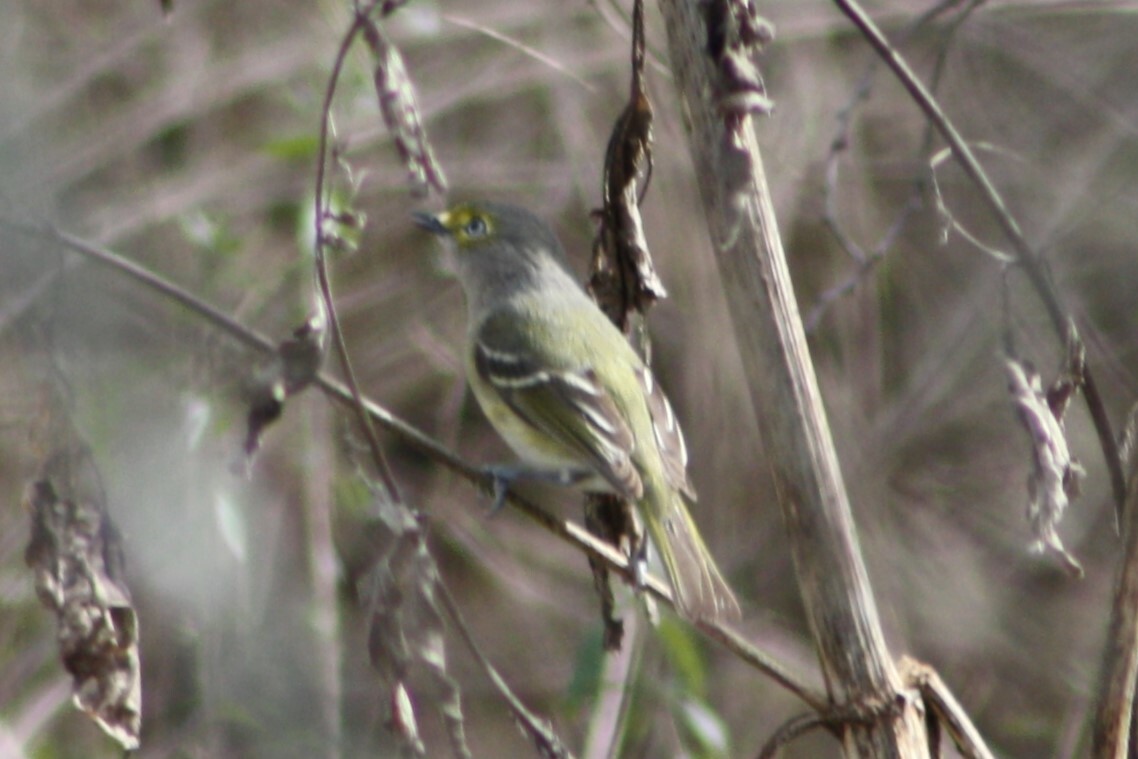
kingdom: Animalia
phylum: Chordata
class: Aves
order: Passeriformes
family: Vireonidae
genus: Vireo
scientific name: Vireo griseus
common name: White-eyed vireo
